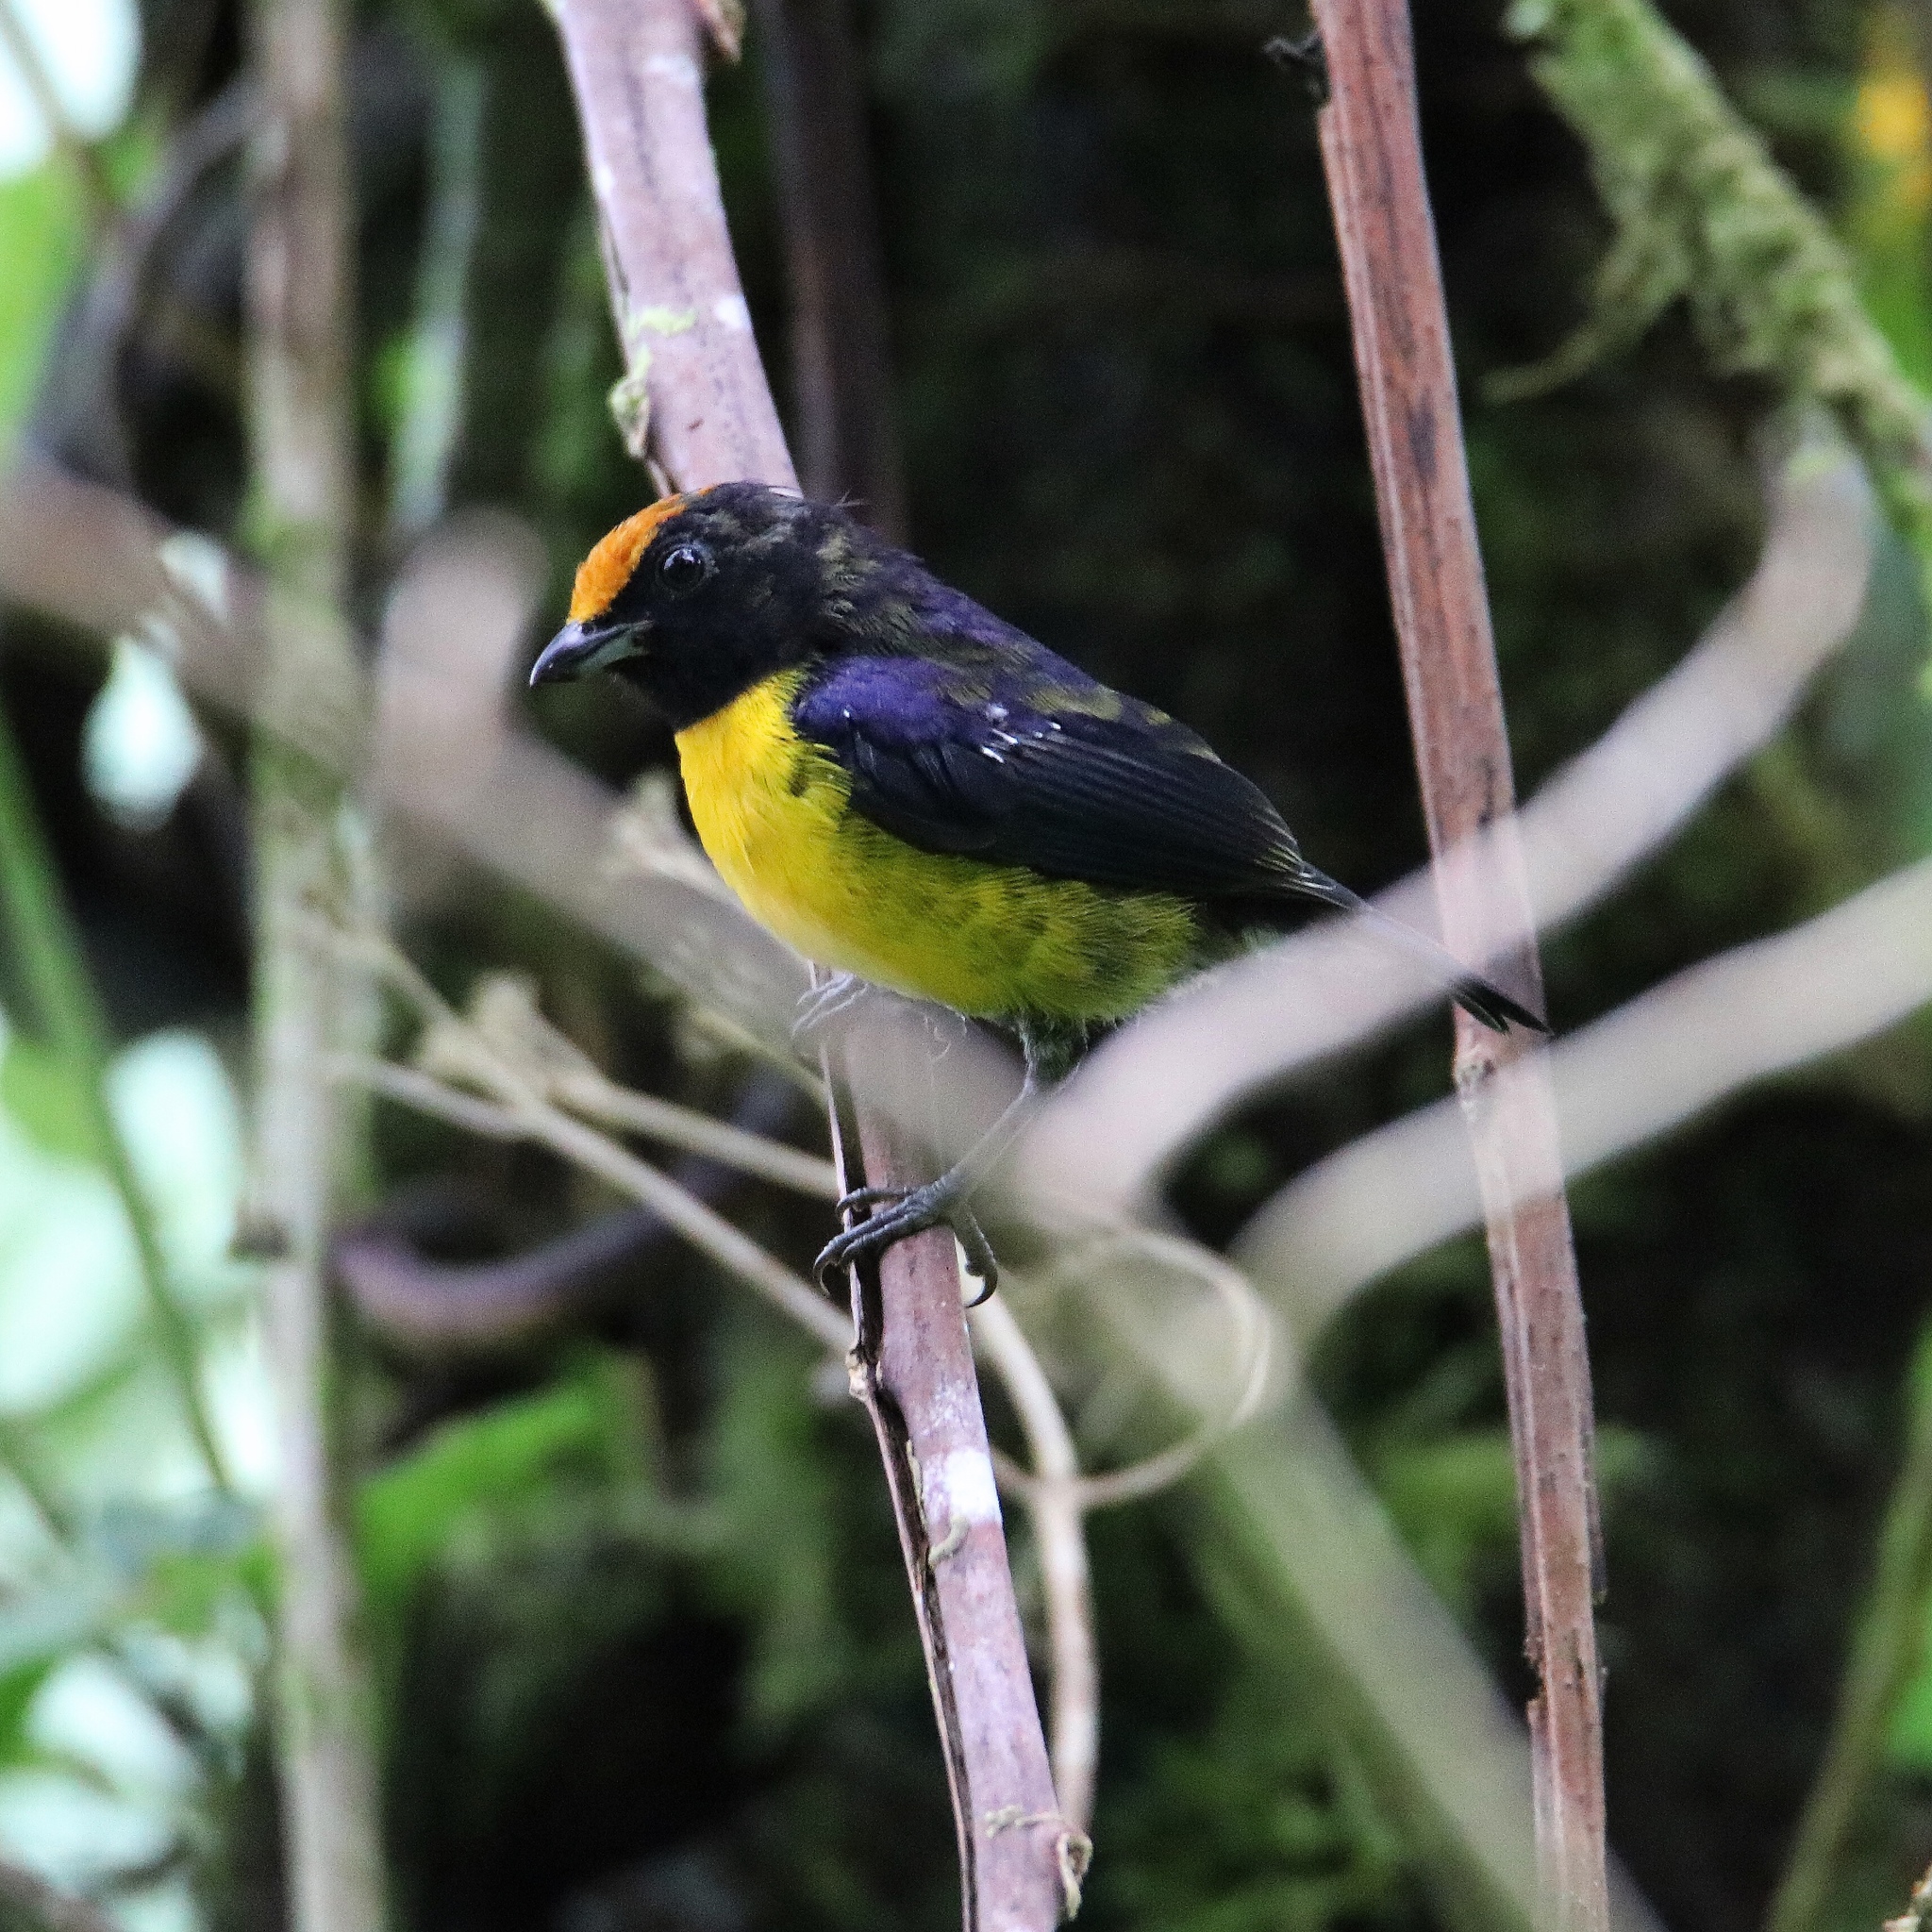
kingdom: Animalia
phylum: Chordata
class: Aves
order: Passeriformes
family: Fringillidae
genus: Euphonia
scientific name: Euphonia anneae
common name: Tawny-capped euphonia
